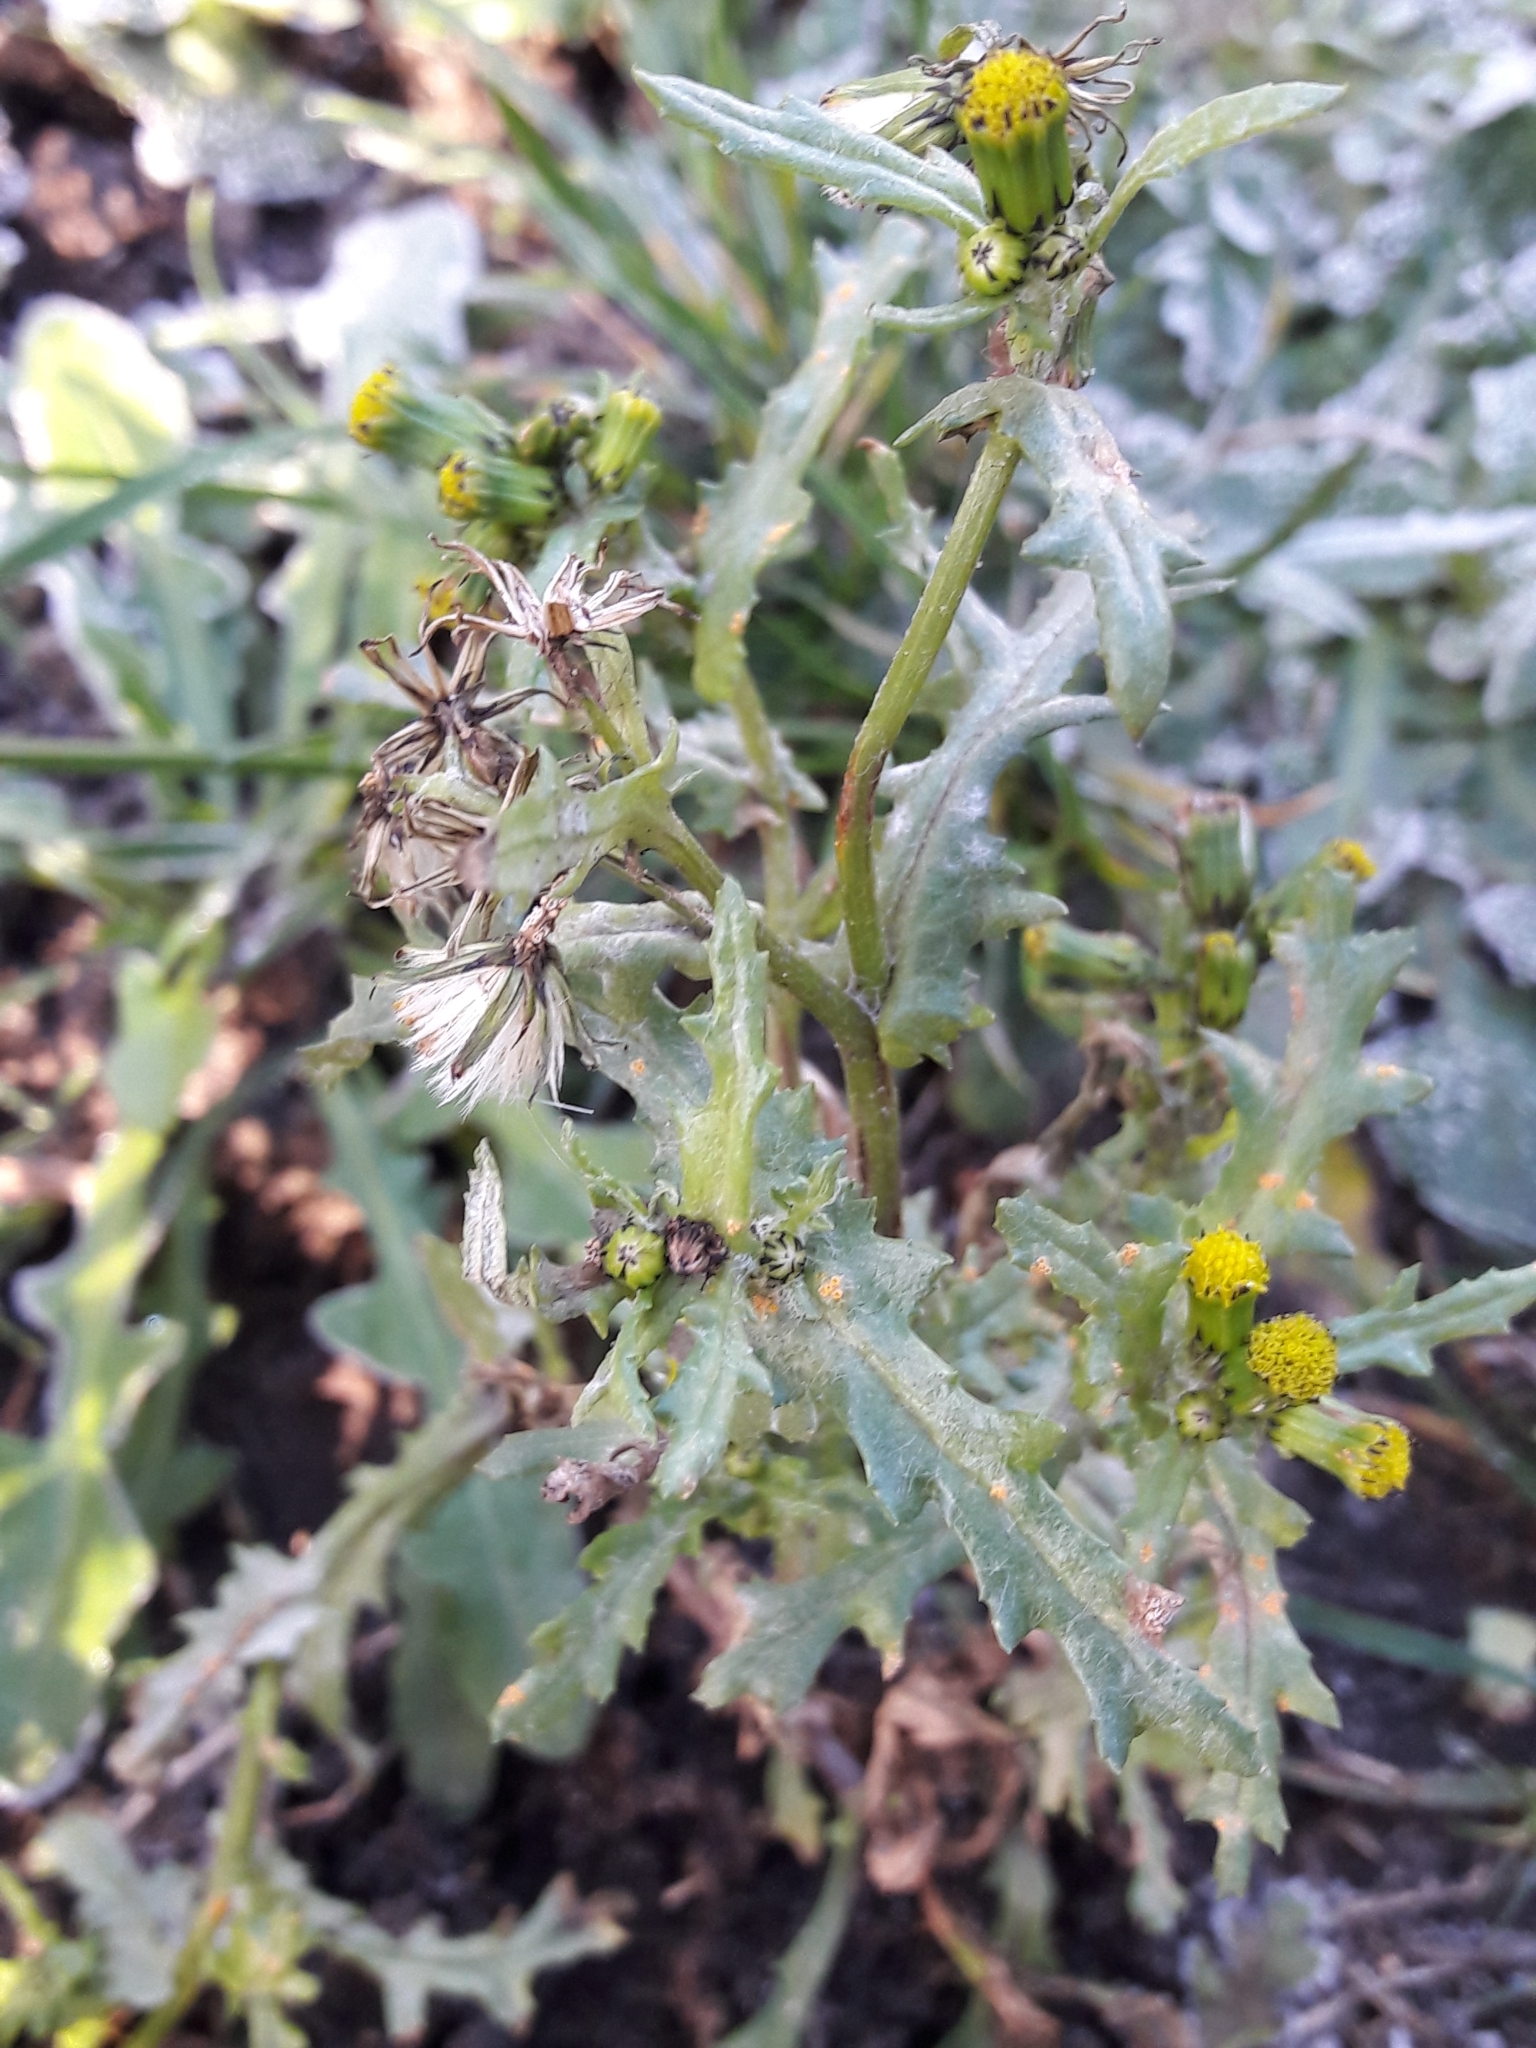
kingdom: Plantae
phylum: Tracheophyta
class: Magnoliopsida
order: Asterales
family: Asteraceae
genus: Senecio
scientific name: Senecio vulgaris
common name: Old-man-in-the-spring
